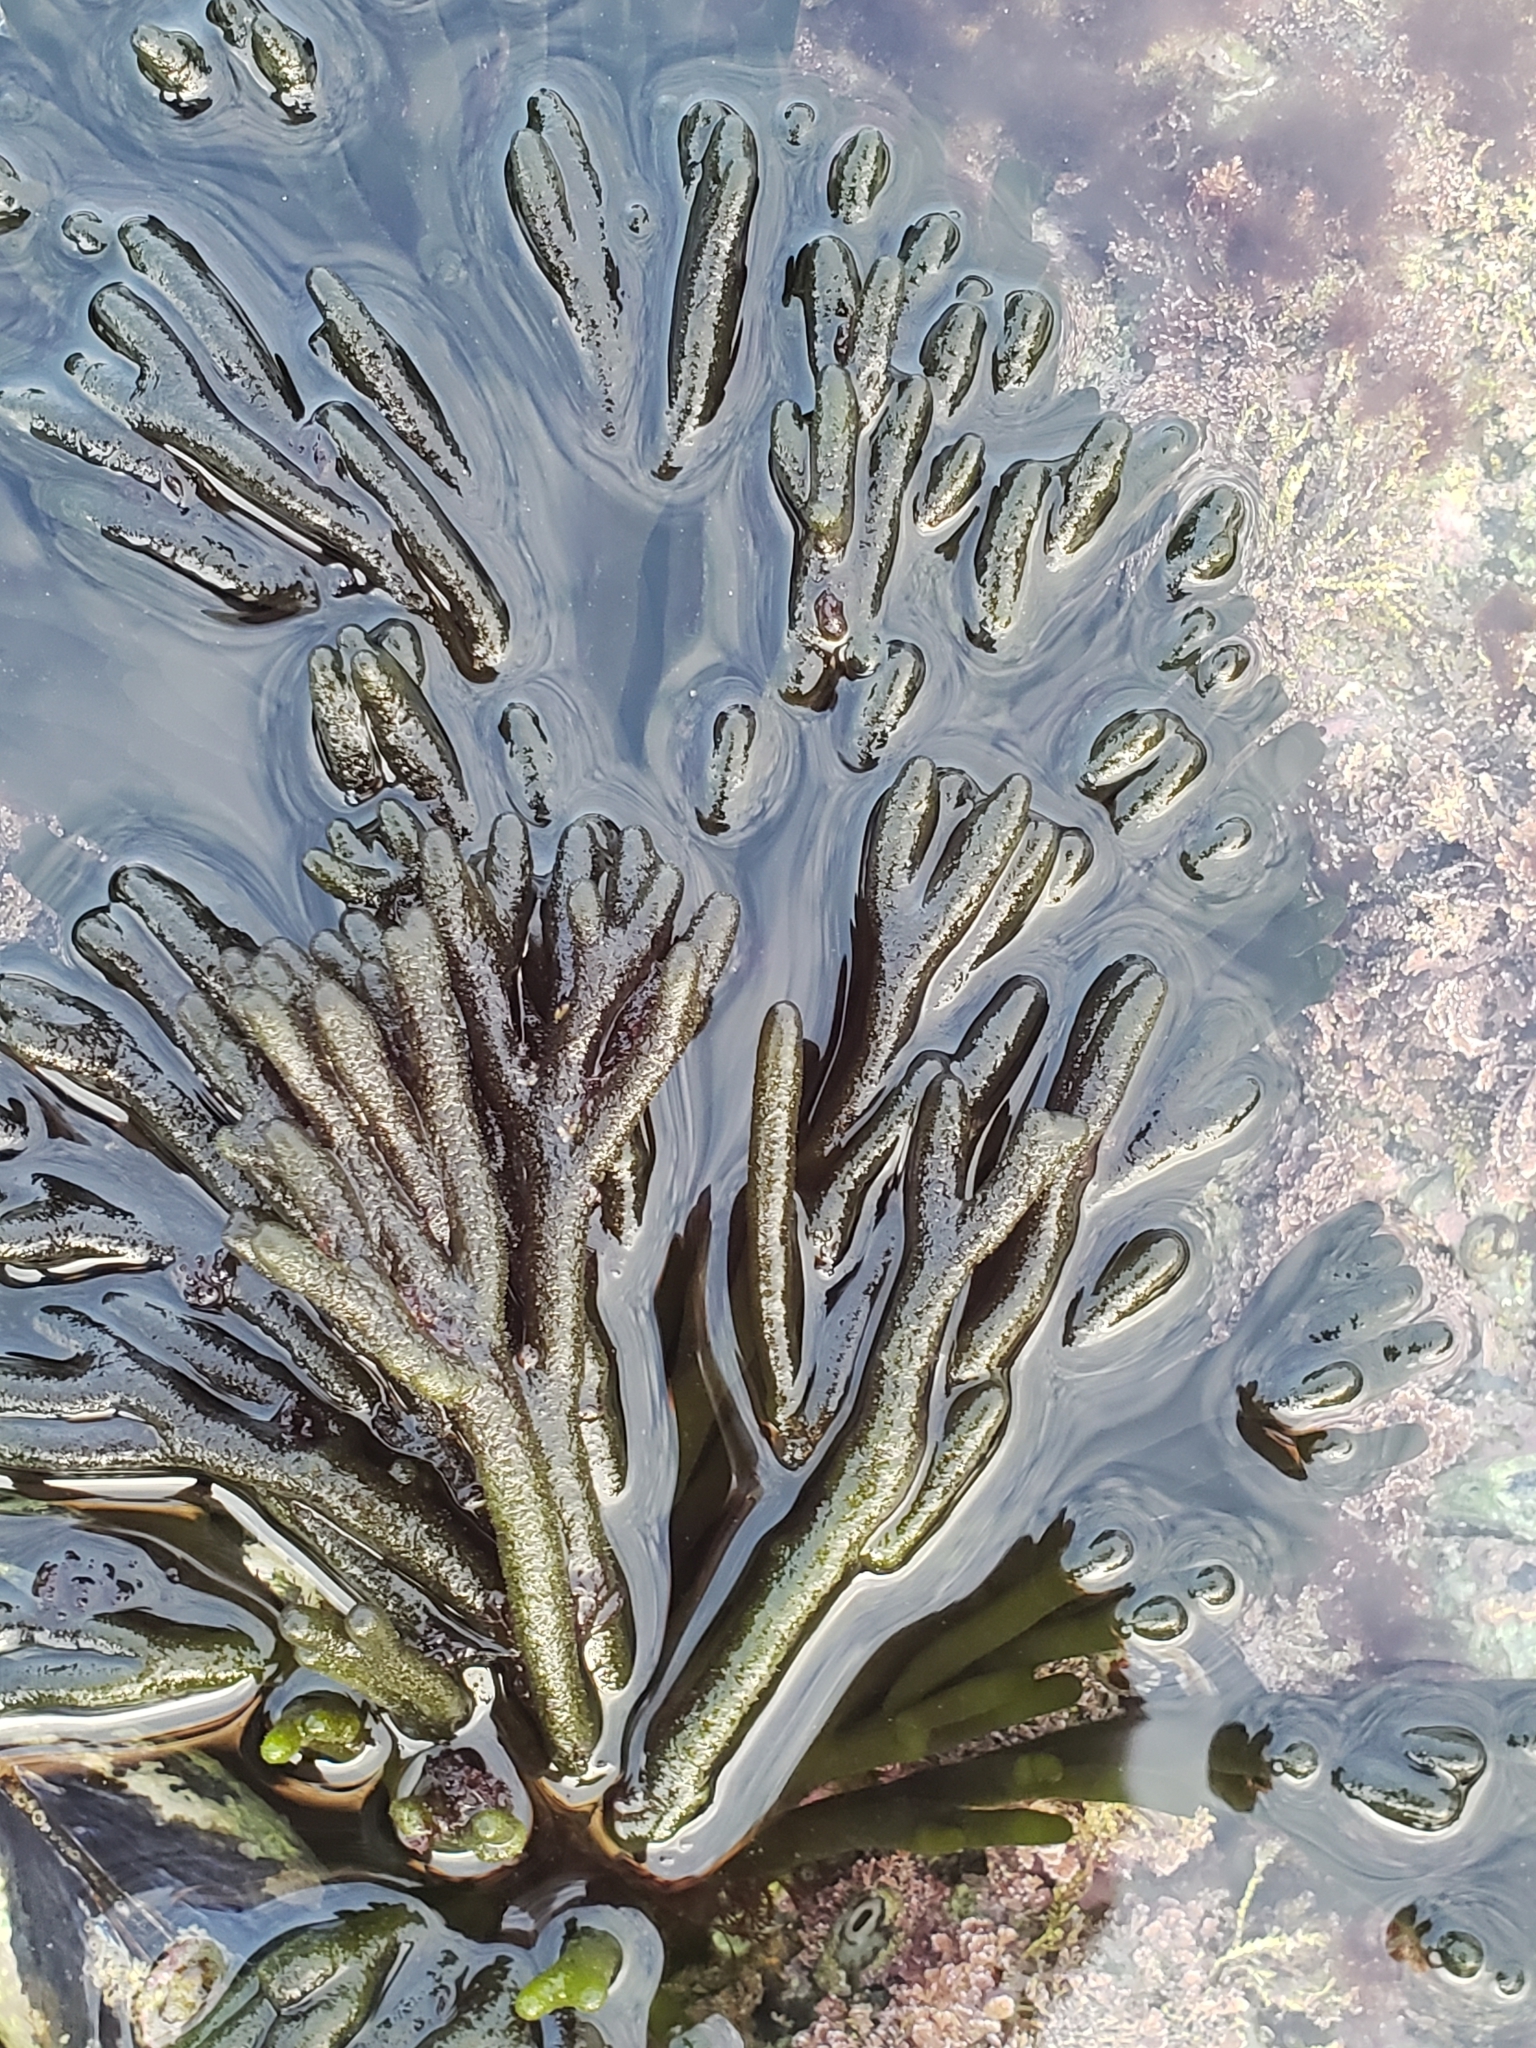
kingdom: Plantae
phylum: Chlorophyta
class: Ulvophyceae
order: Bryopsidales
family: Codiaceae
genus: Codium
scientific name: Codium fragile
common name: Dead man's fingers
